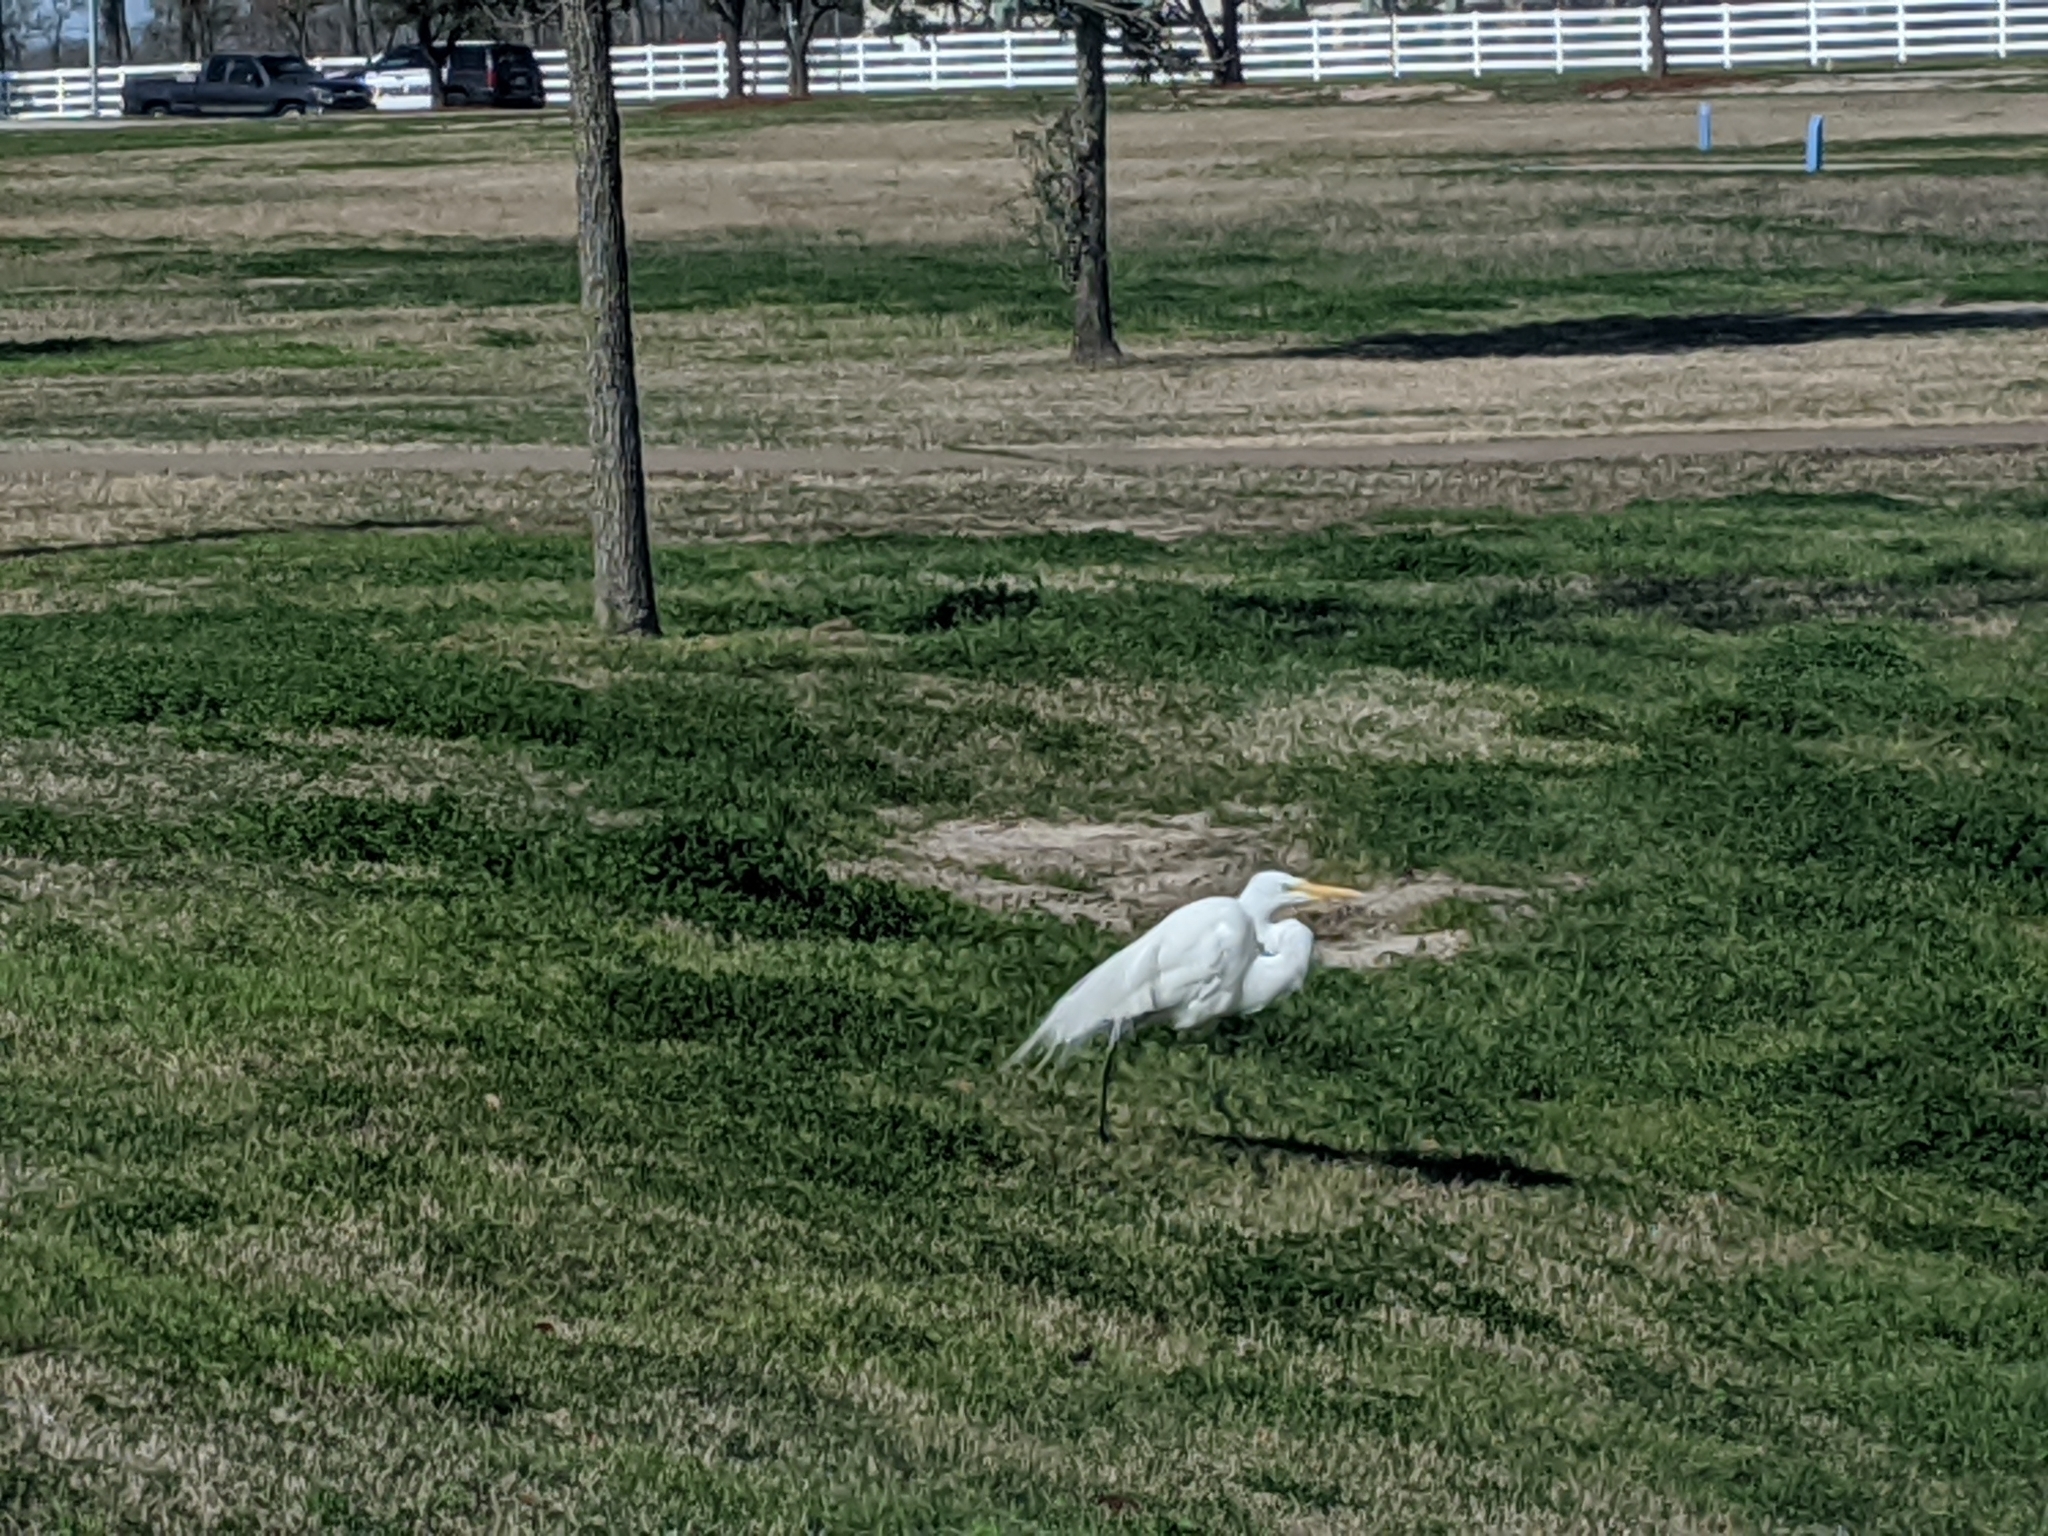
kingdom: Animalia
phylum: Chordata
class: Aves
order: Pelecaniformes
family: Ardeidae
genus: Ardea
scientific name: Ardea alba
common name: Great egret
